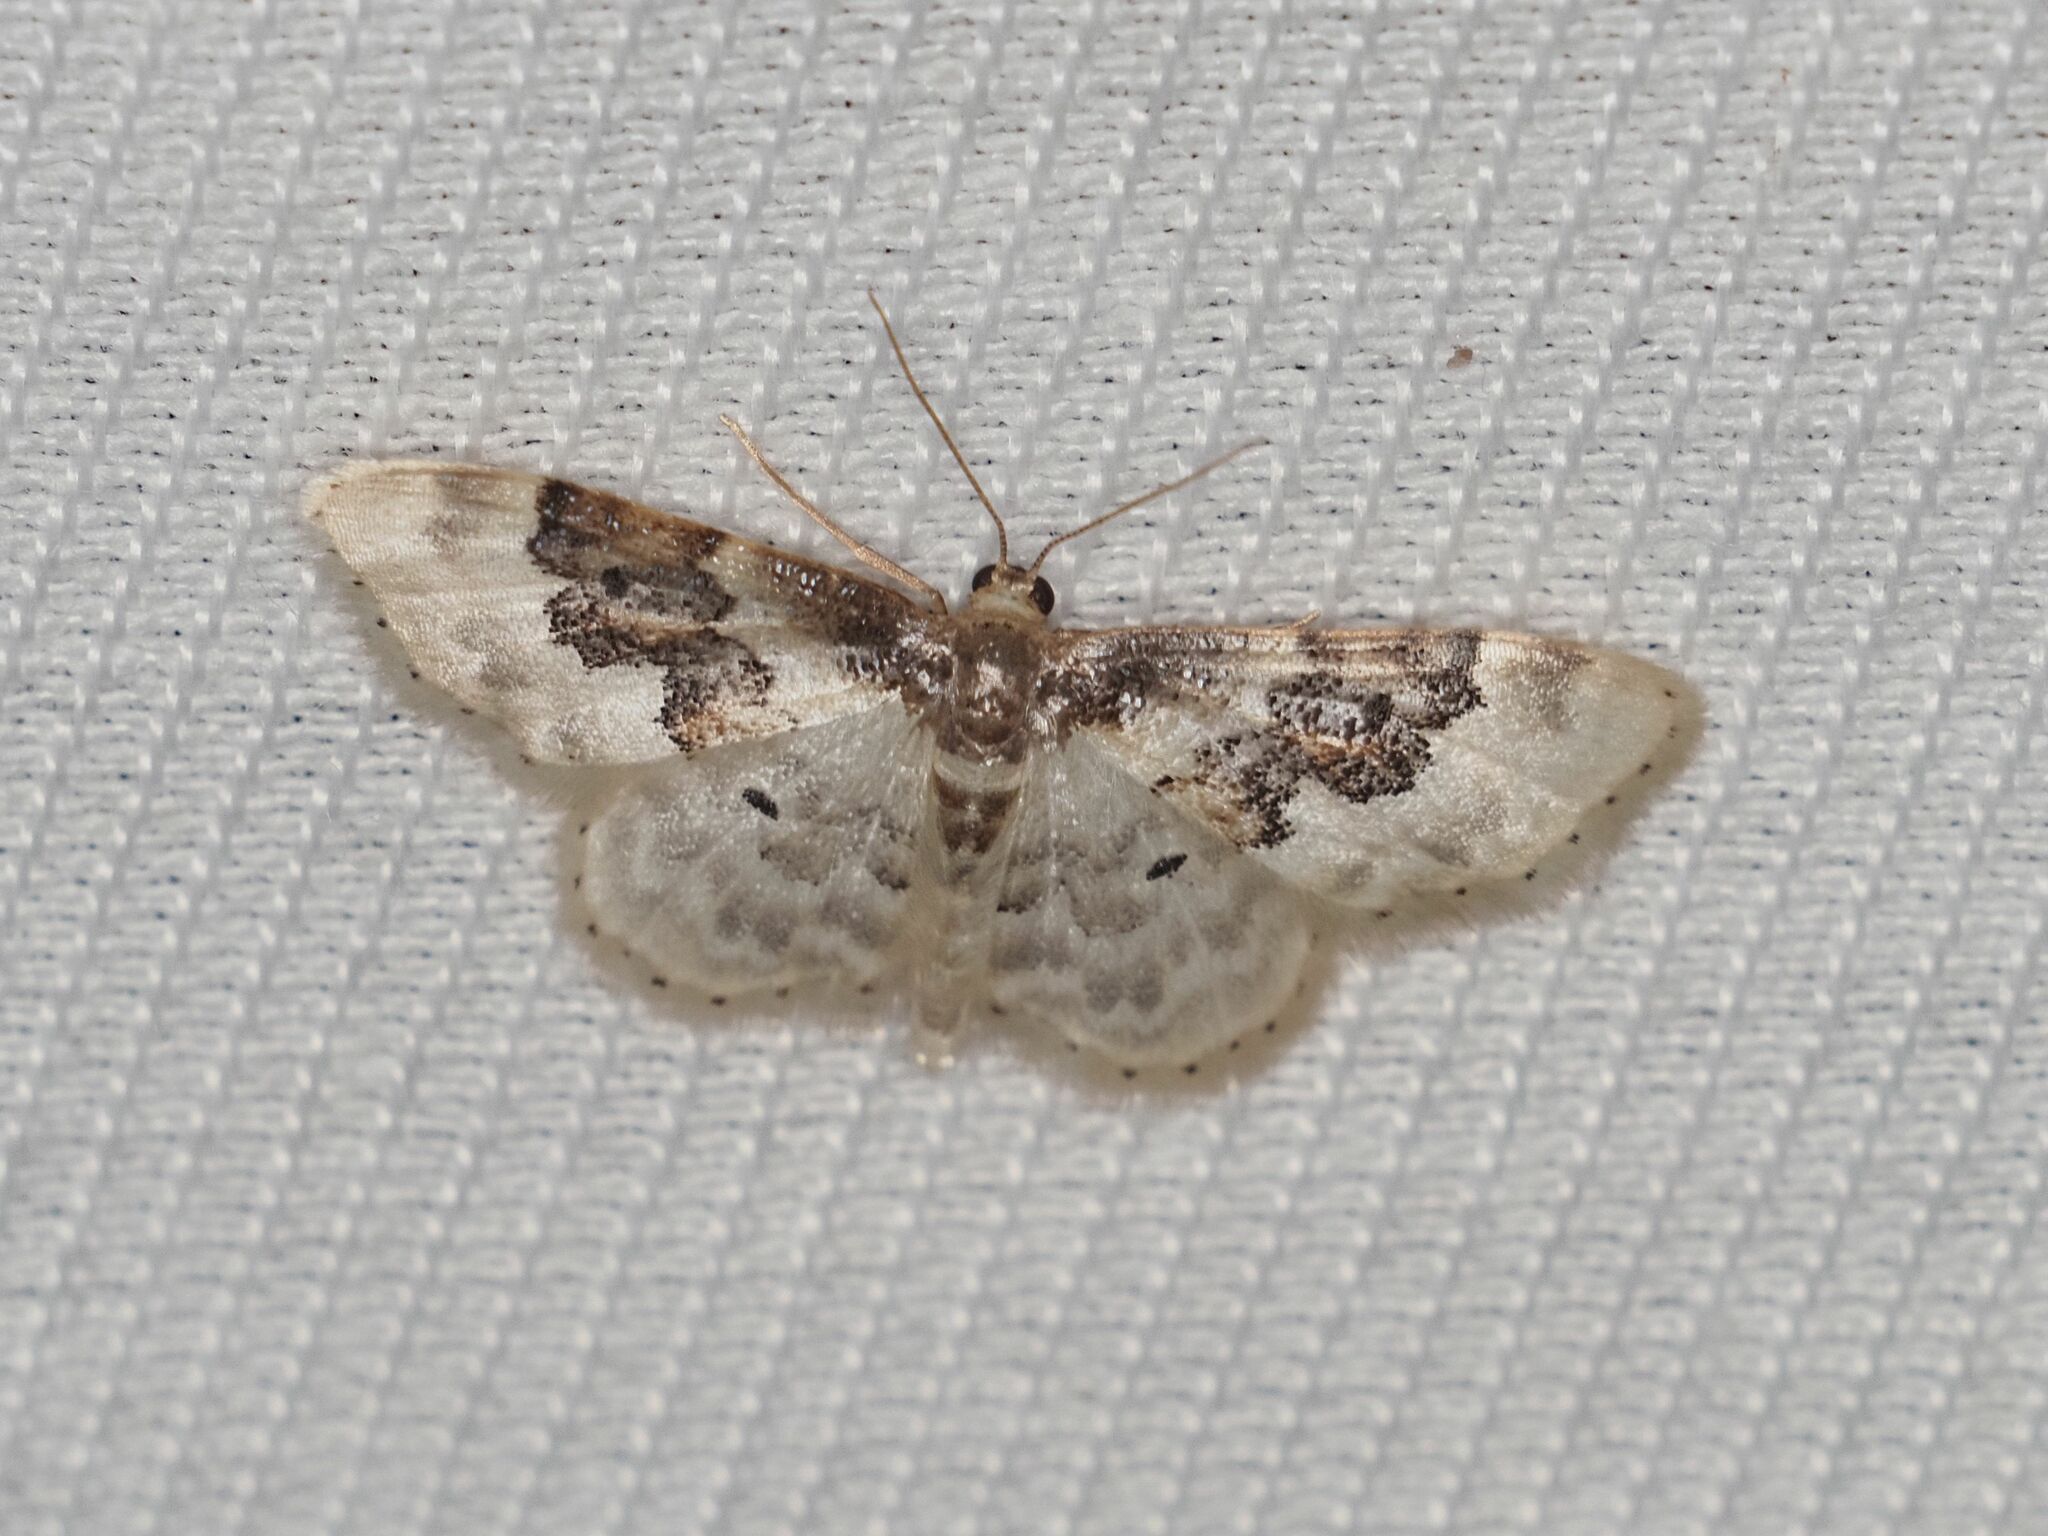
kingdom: Animalia
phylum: Arthropoda
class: Insecta
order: Lepidoptera
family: Geometridae
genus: Idaea
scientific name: Idaea rusticata
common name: Least carpet
